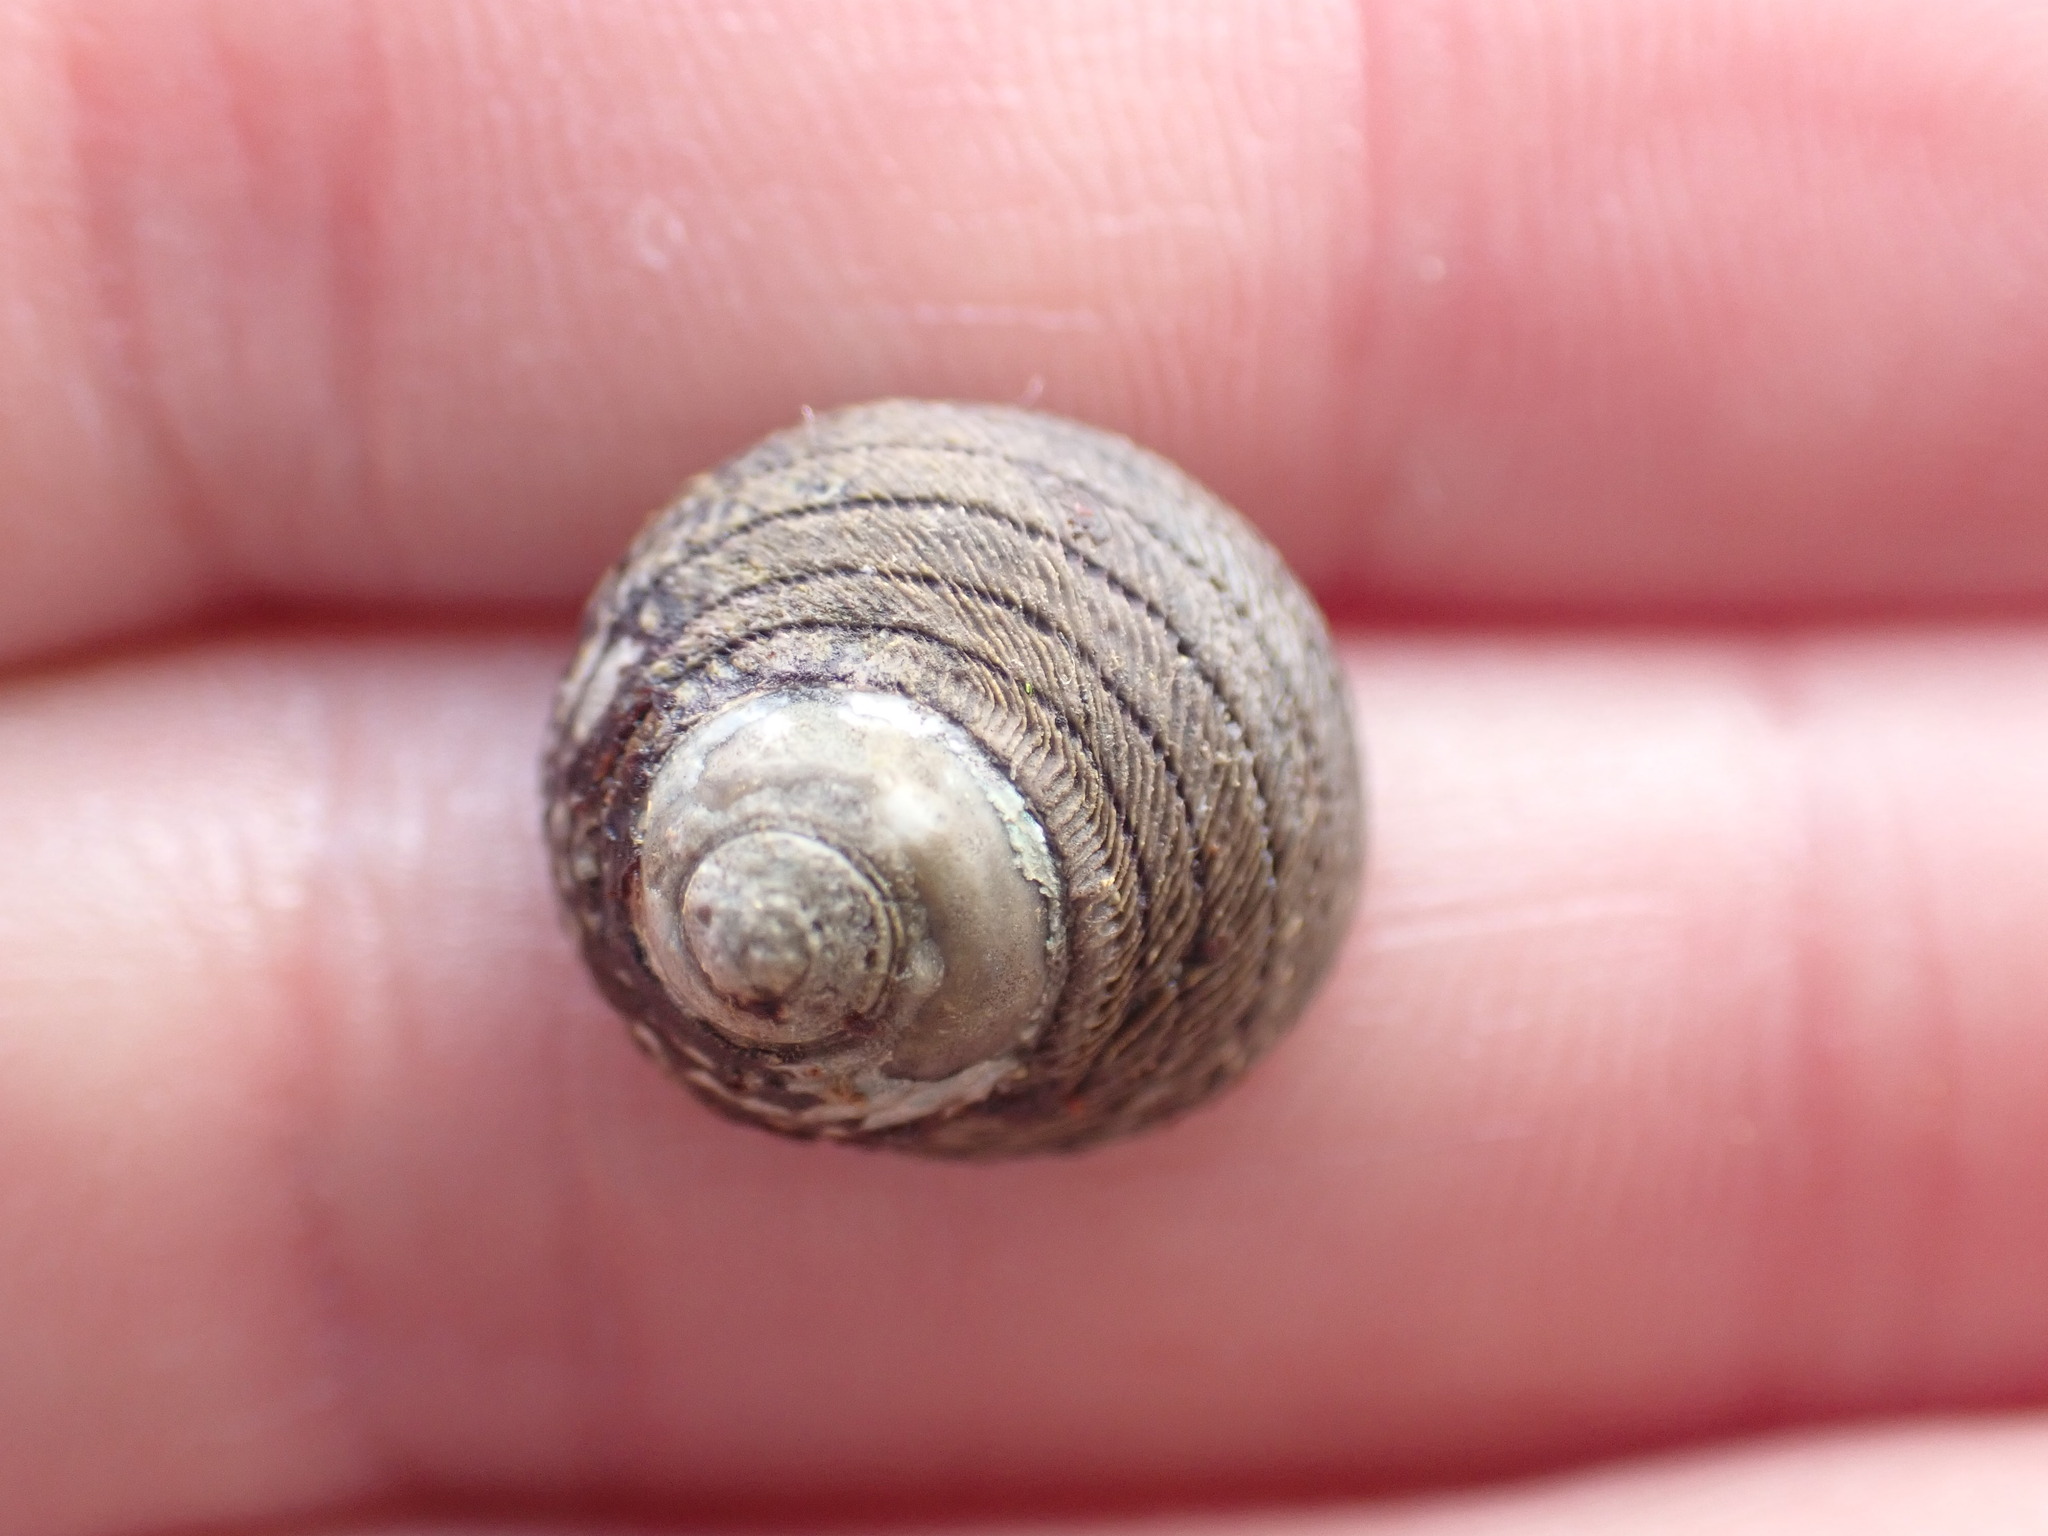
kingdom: Animalia
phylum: Mollusca
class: Gastropoda
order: Trochida
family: Trochidae
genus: Diloma
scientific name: Diloma aethiops
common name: Scorched monodont
